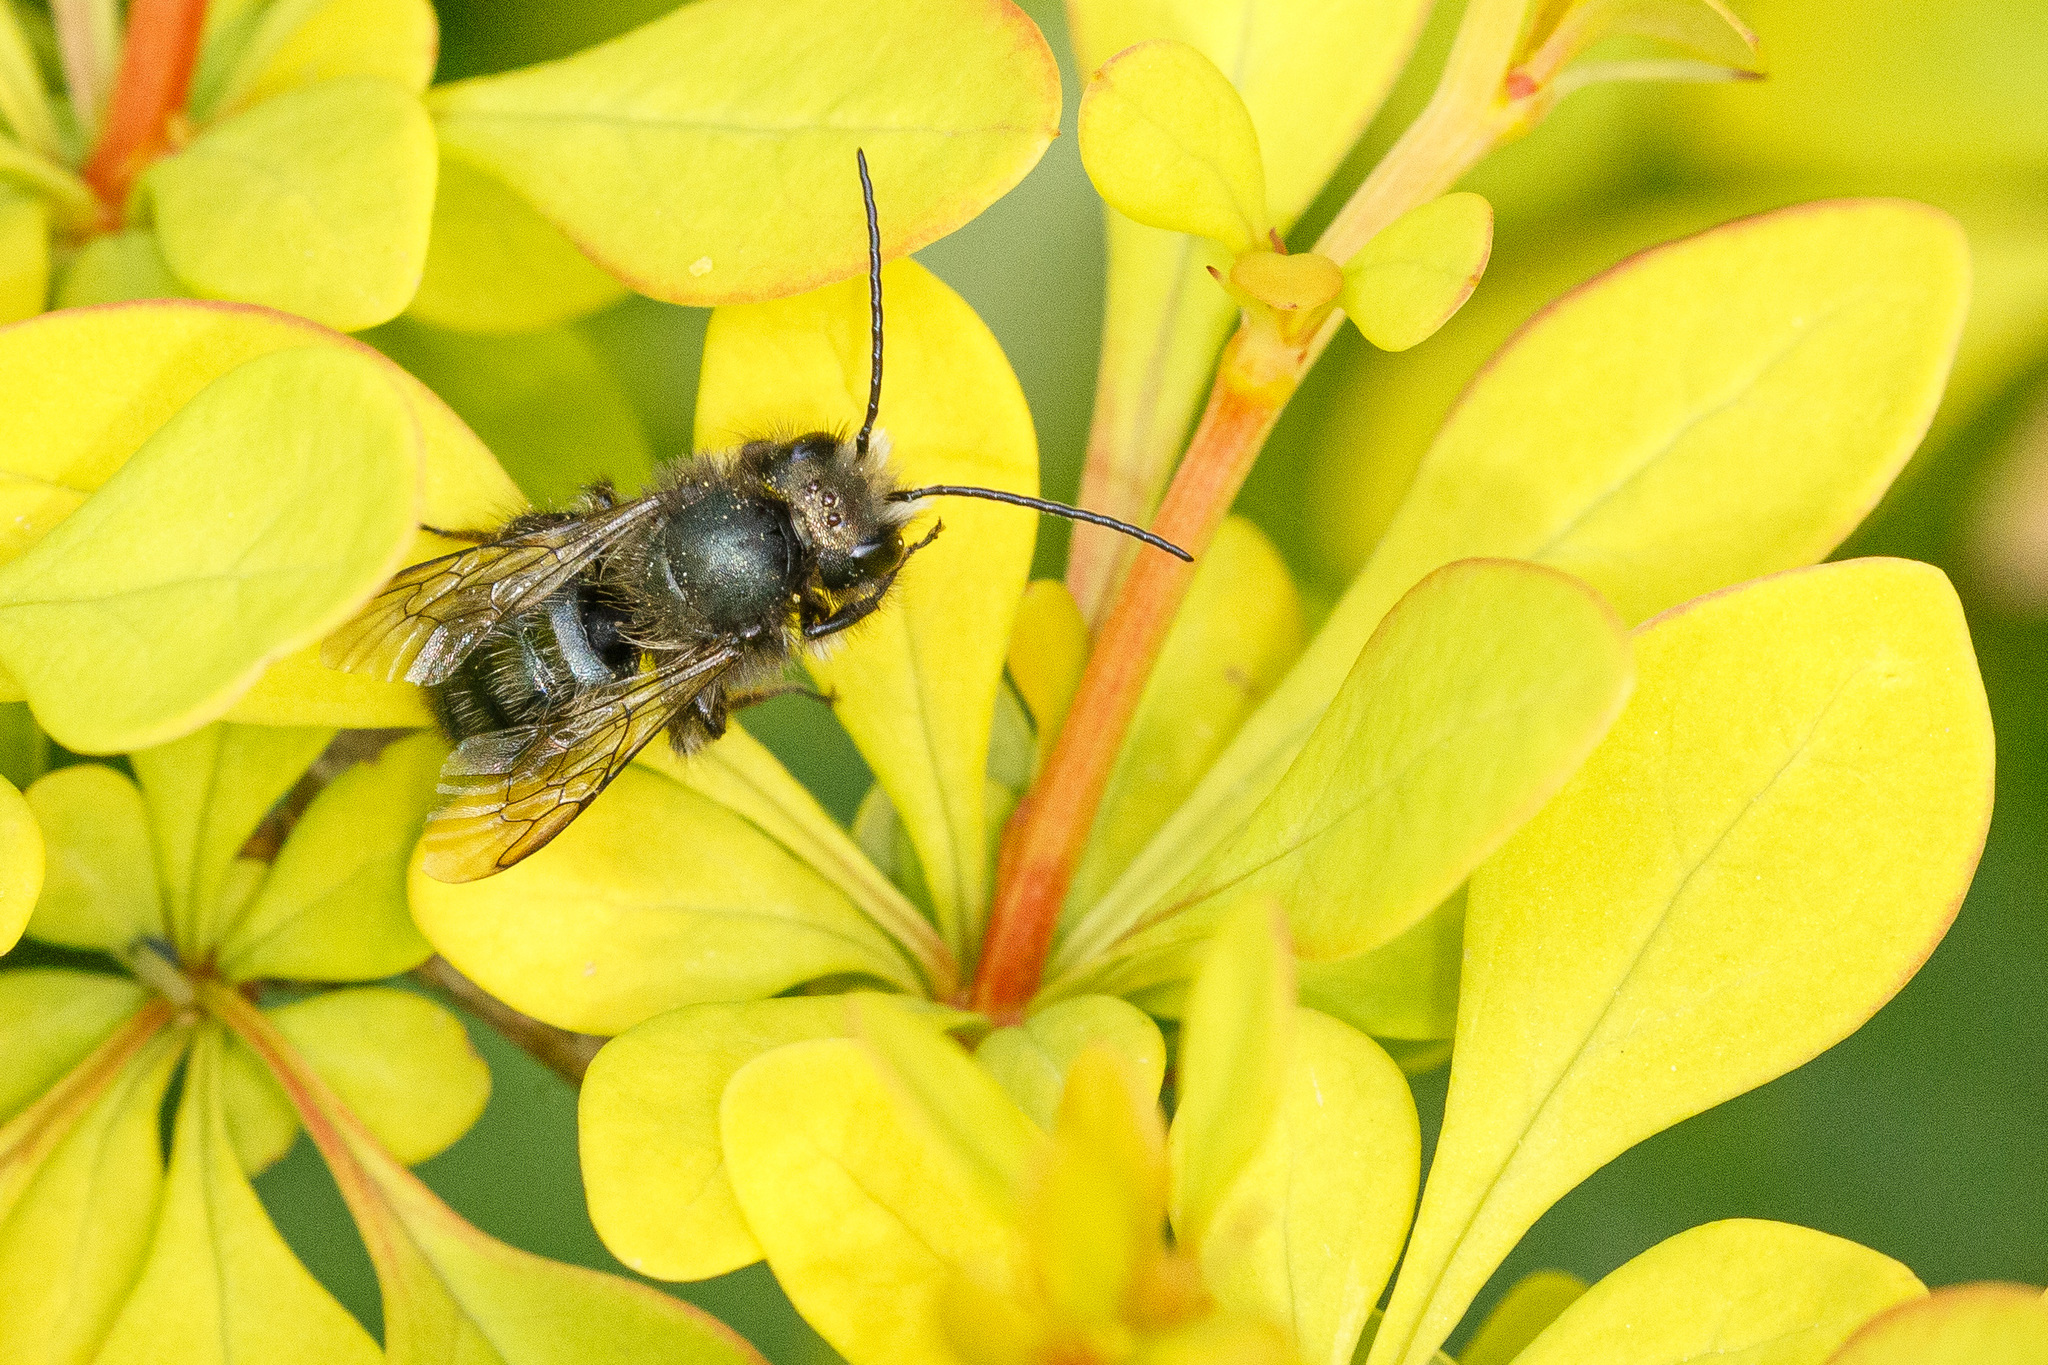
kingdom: Animalia
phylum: Arthropoda
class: Insecta
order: Hymenoptera
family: Megachilidae
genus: Osmia
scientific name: Osmia lignaria
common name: Blue orchard bee
